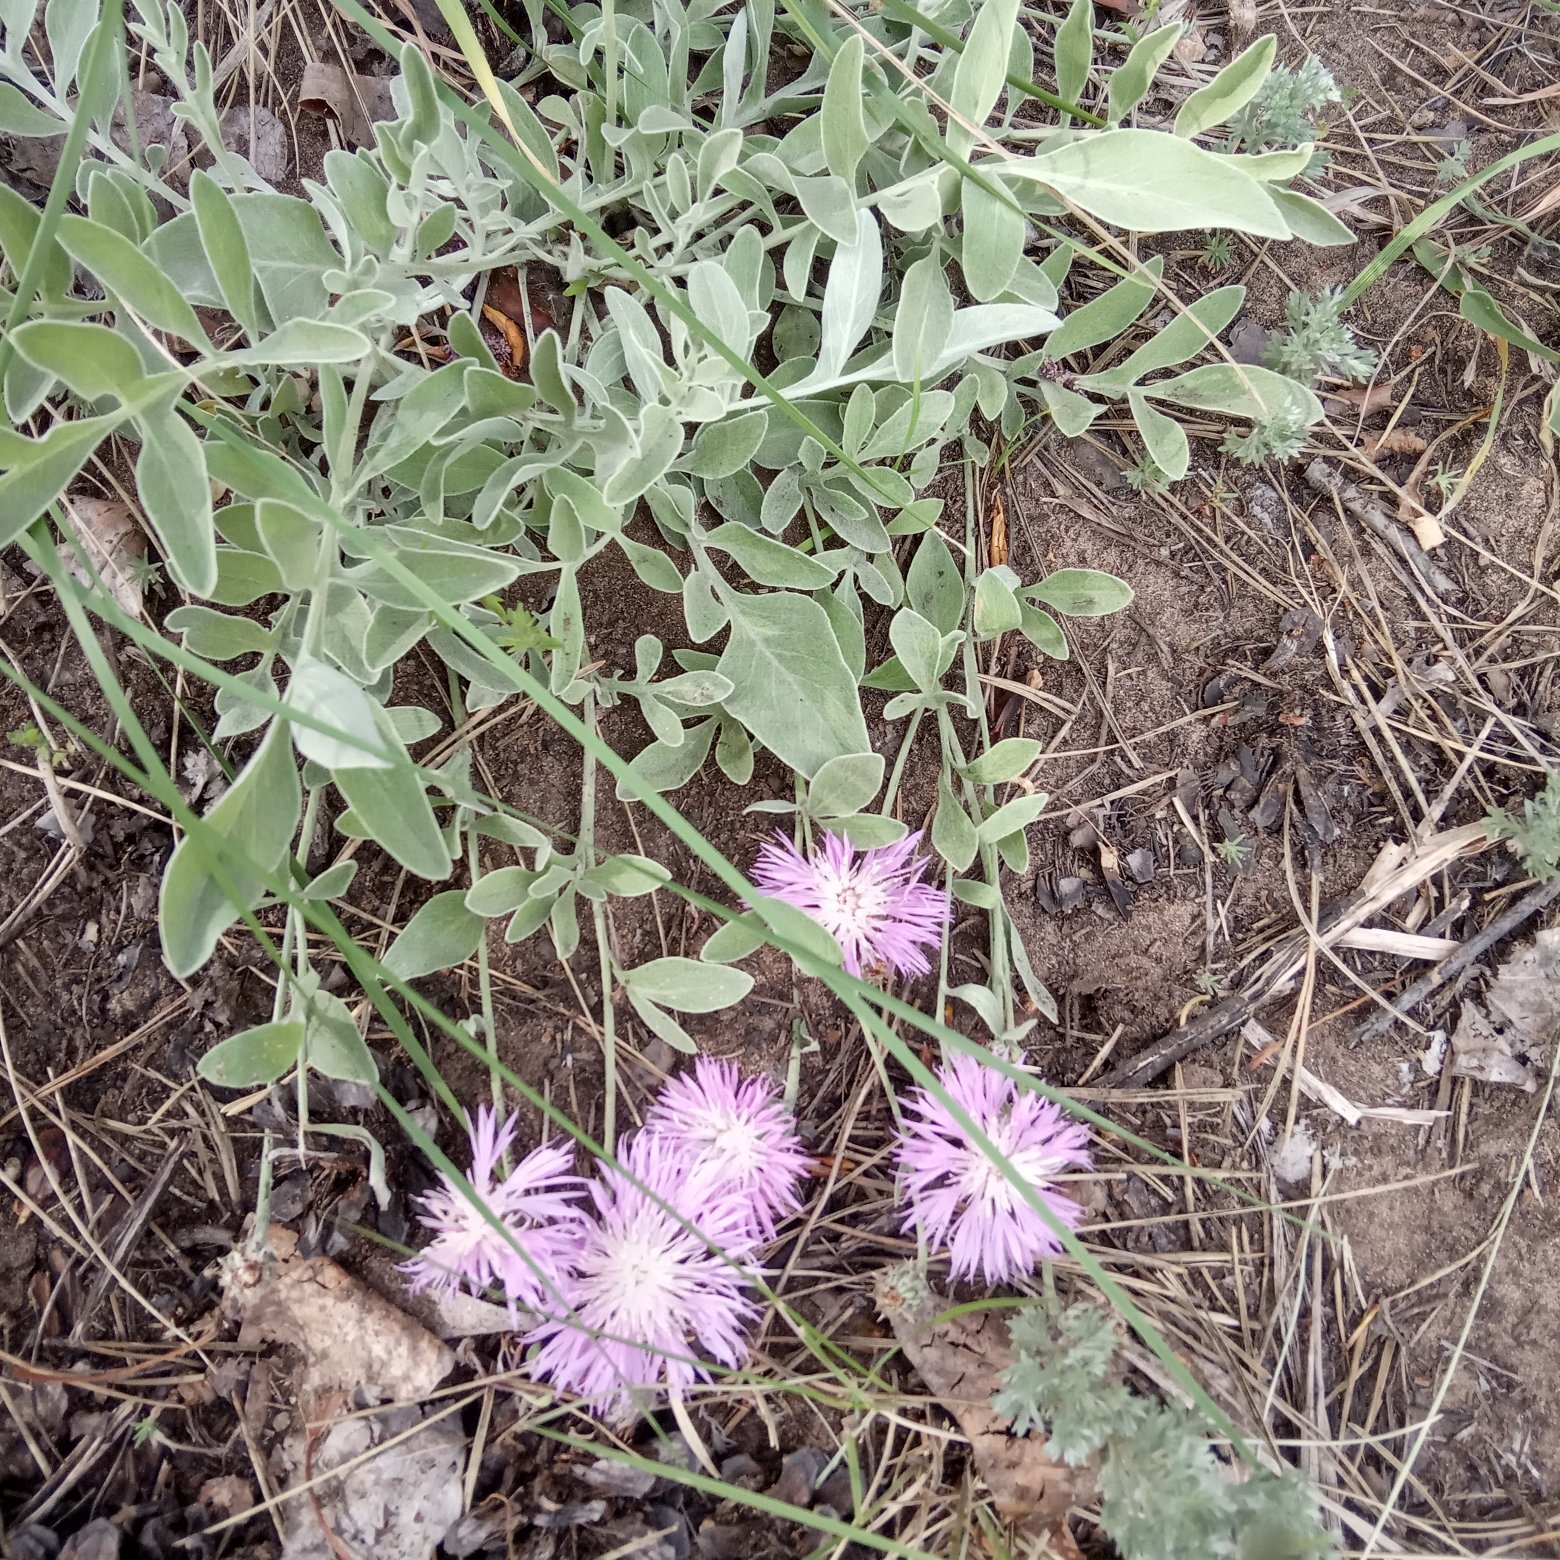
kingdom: Plantae
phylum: Tracheophyta
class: Magnoliopsida
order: Asterales
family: Asteraceae
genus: Psephellus
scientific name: Psephellus marschallianus
